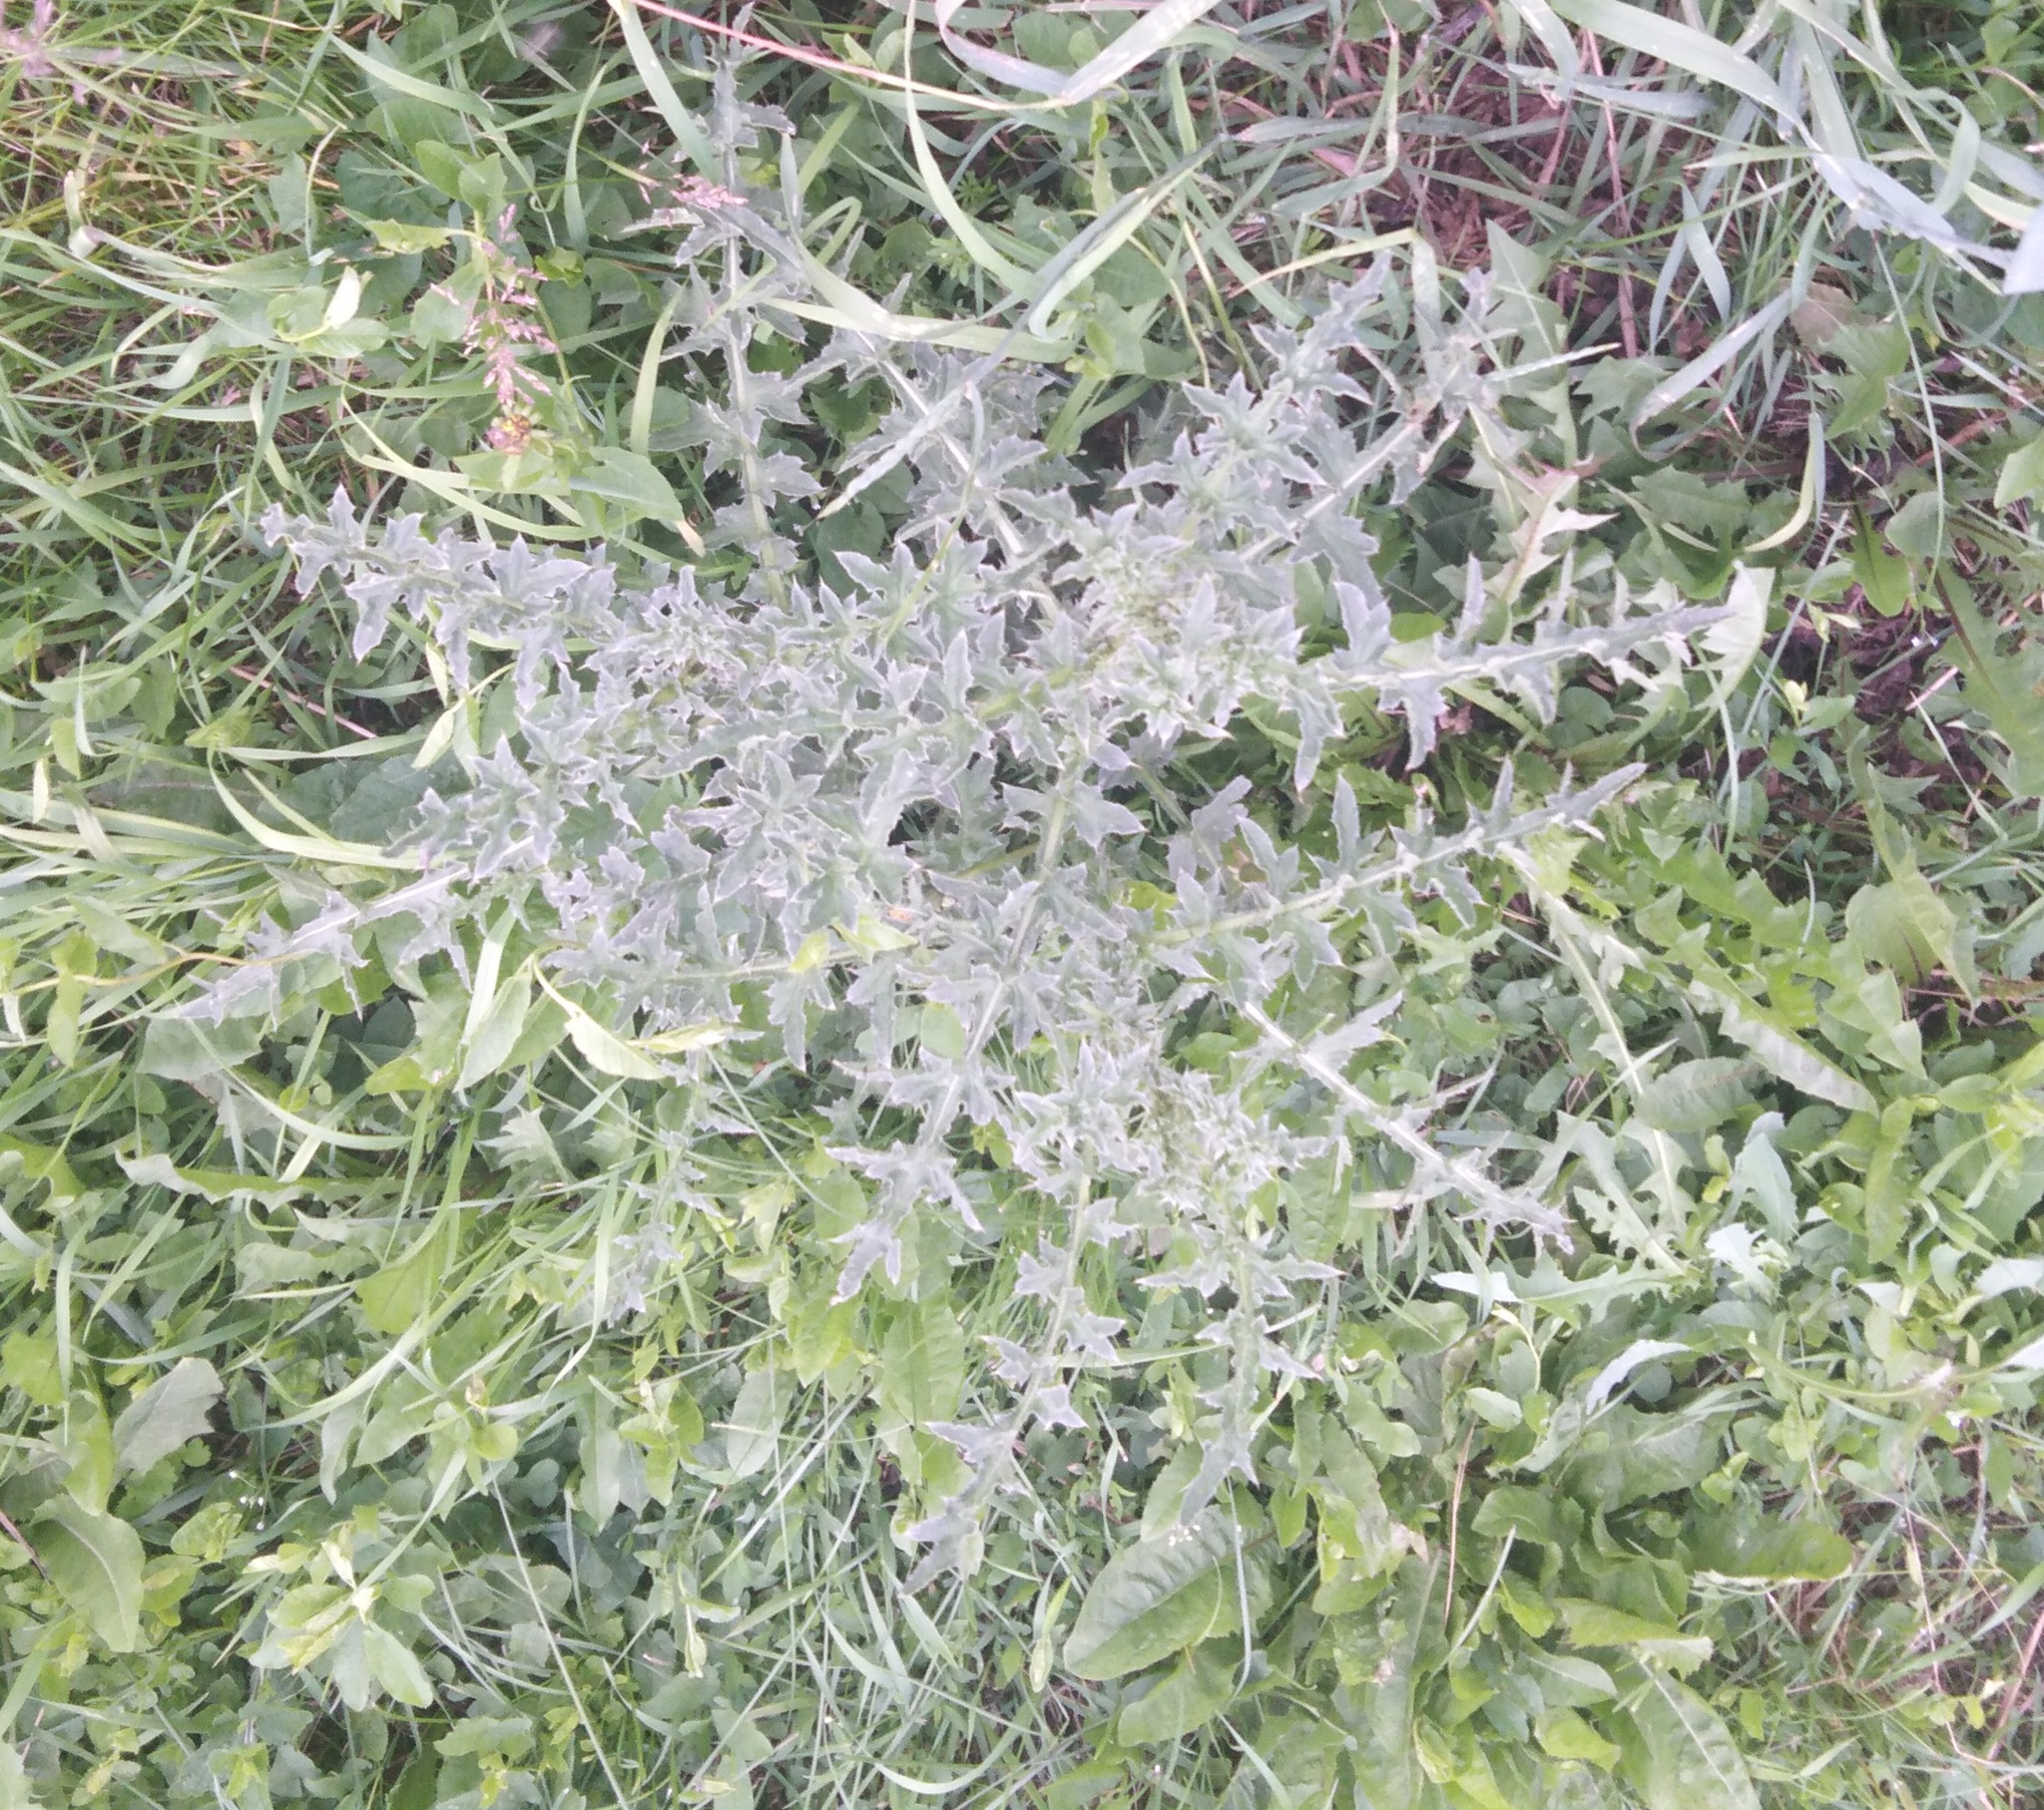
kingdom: Plantae
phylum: Tracheophyta
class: Magnoliopsida
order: Asterales
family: Asteraceae
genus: Carduus
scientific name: Carduus acanthoides
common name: Plumeless thistle
